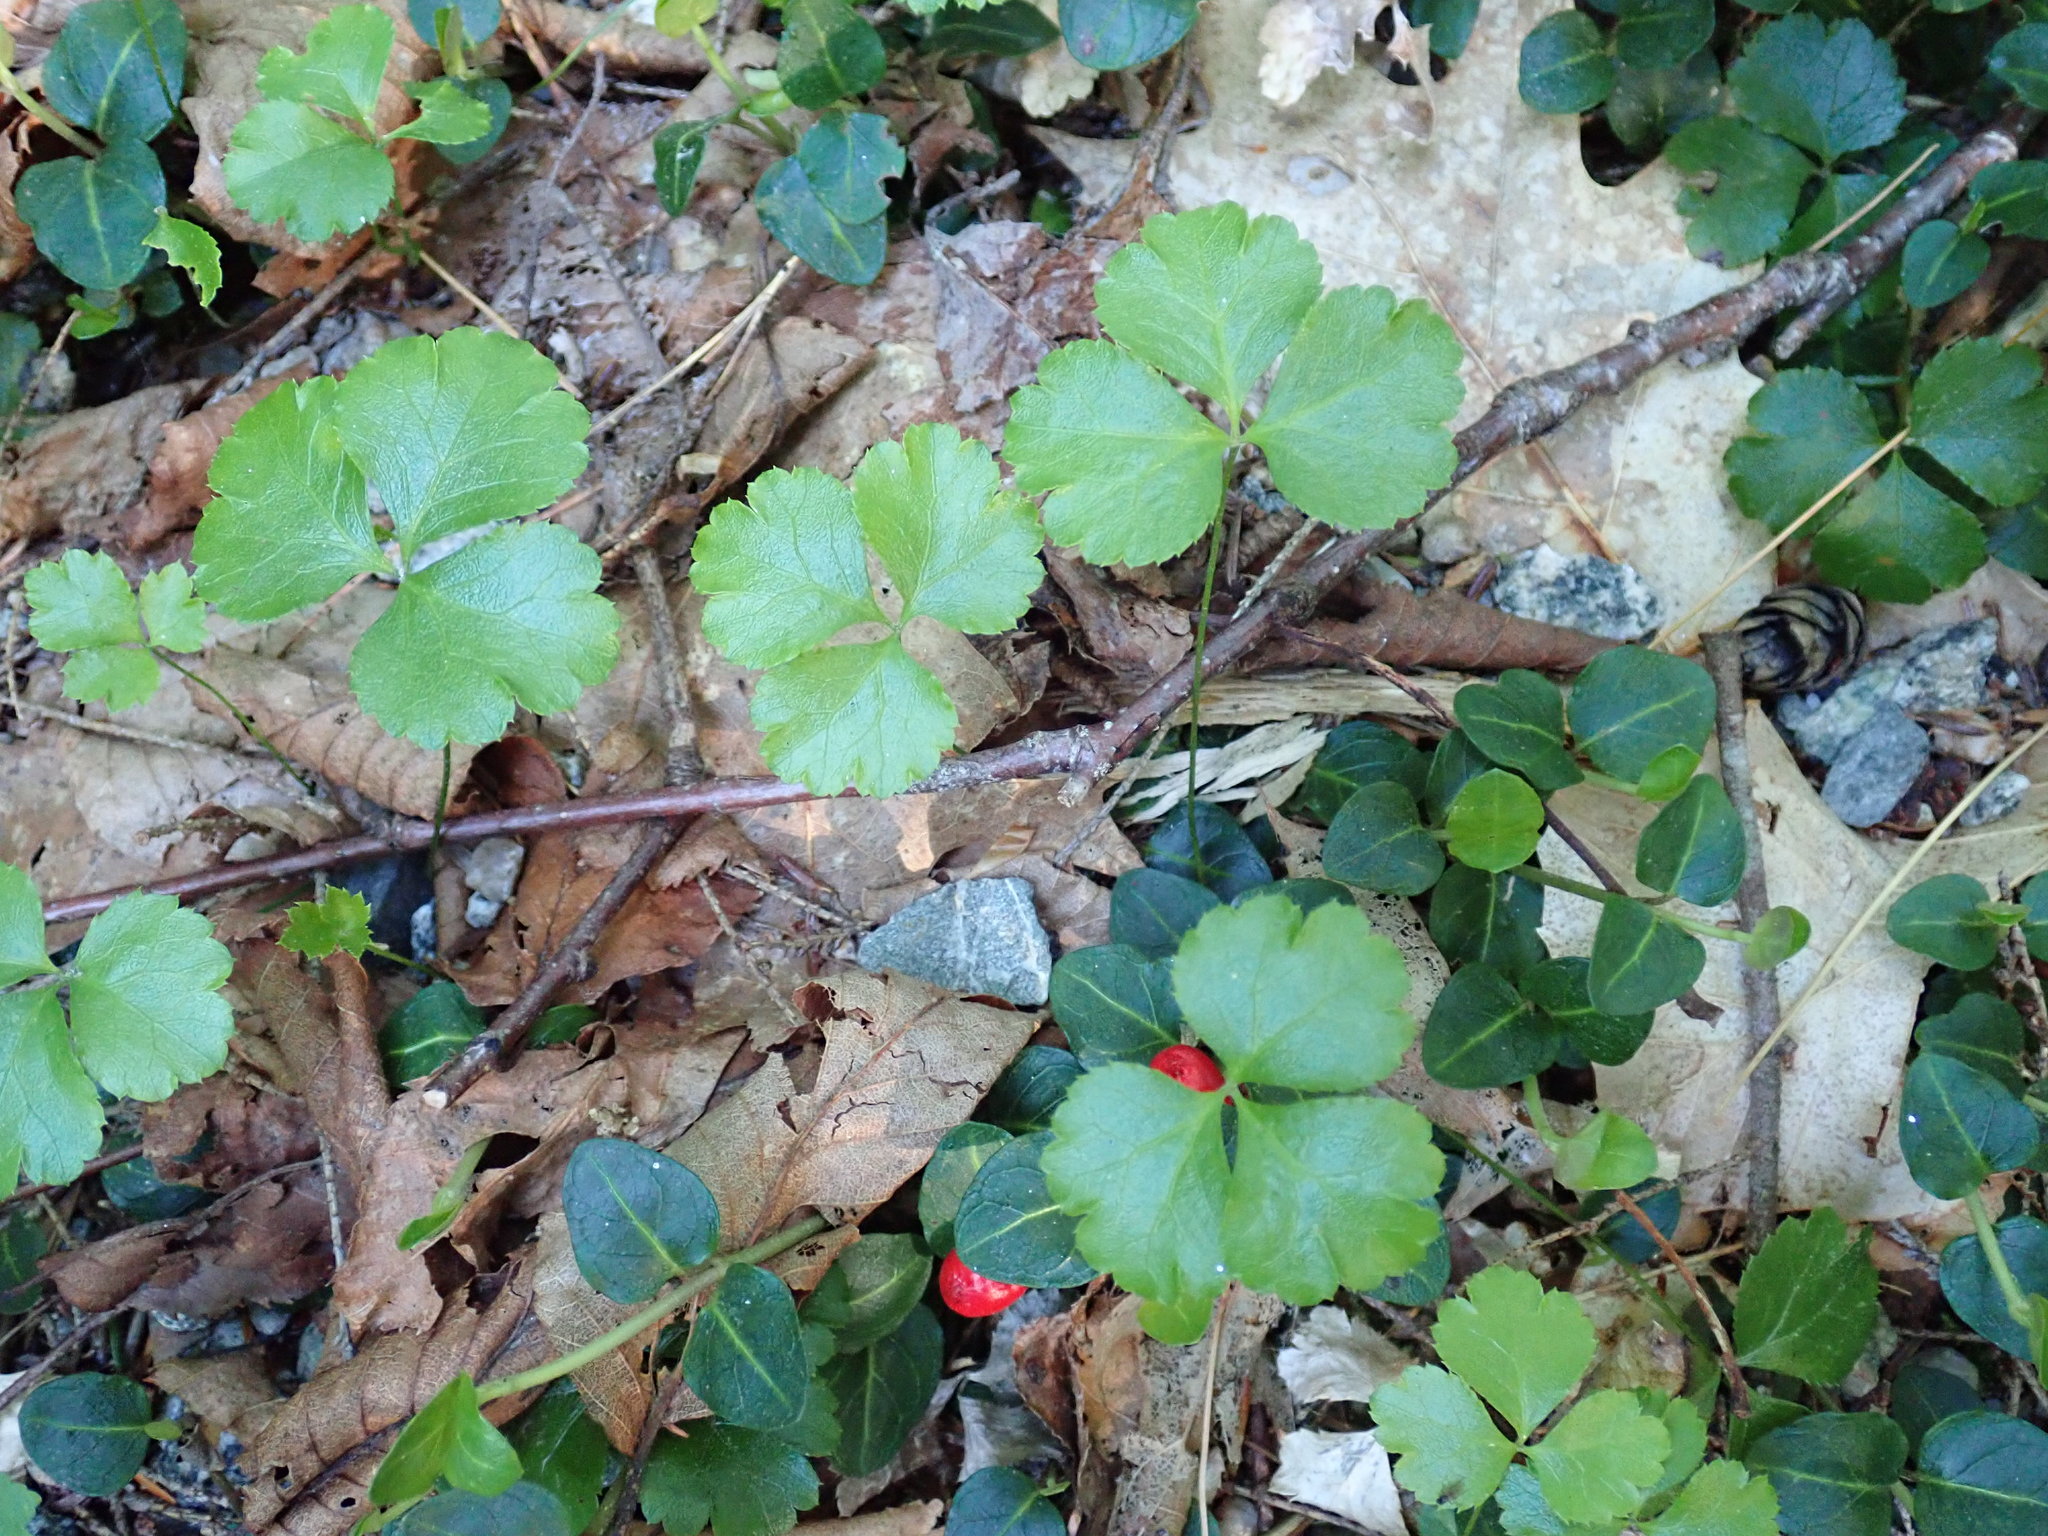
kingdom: Plantae
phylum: Tracheophyta
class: Magnoliopsida
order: Ranunculales
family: Ranunculaceae
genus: Coptis
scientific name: Coptis trifolia
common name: Canker-root
